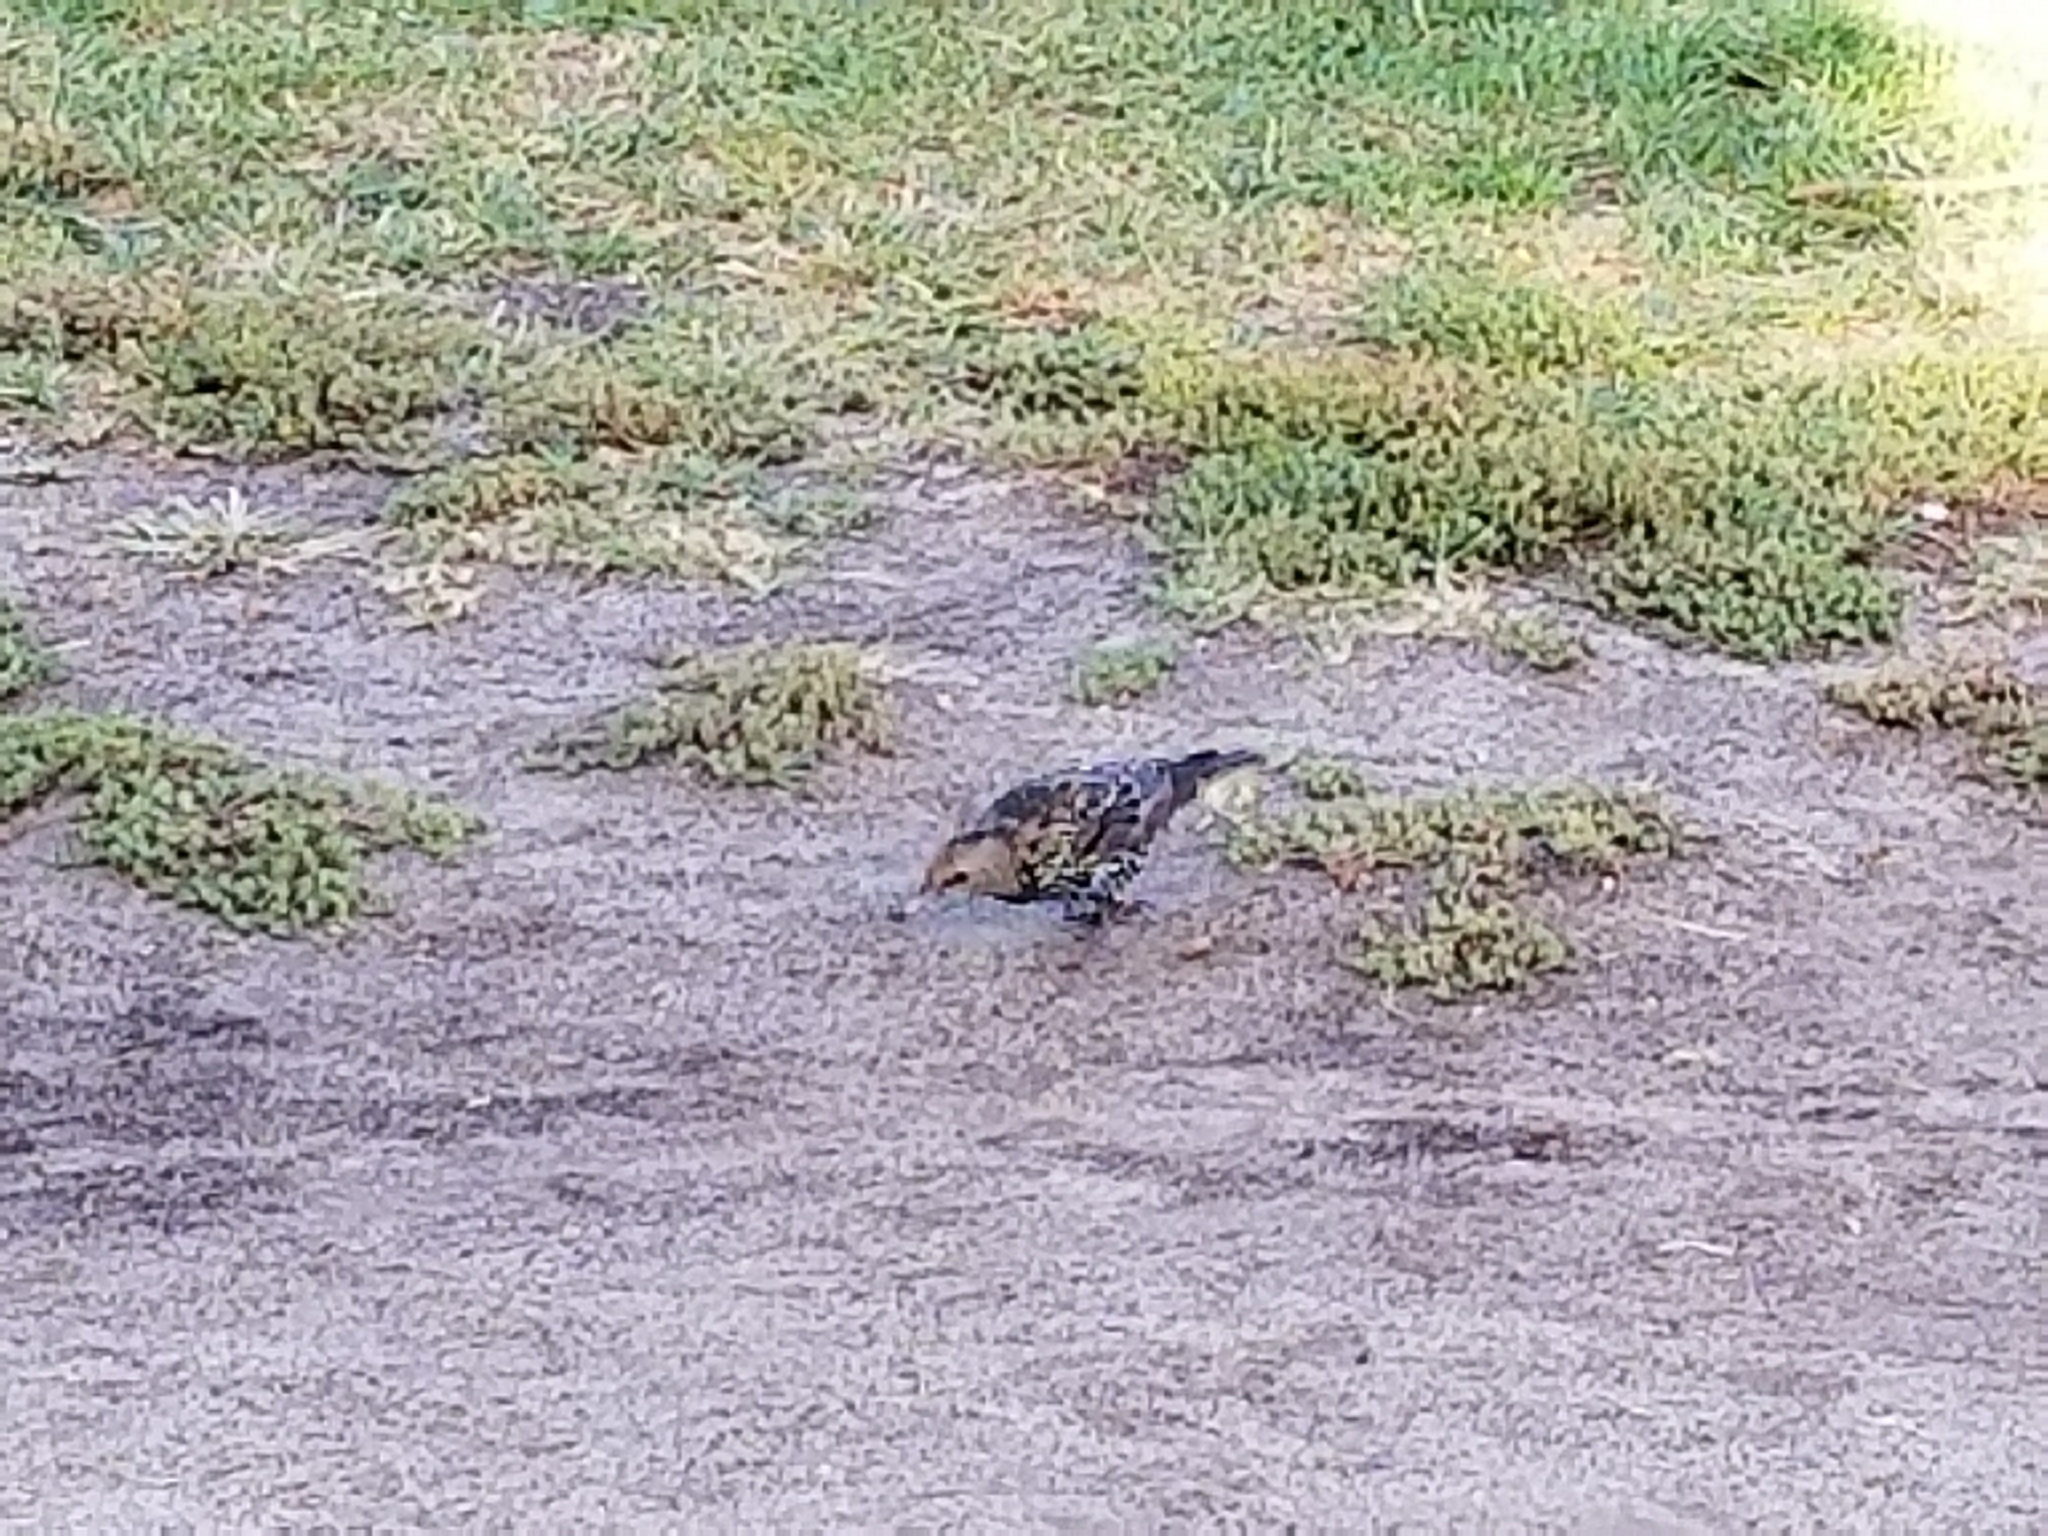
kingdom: Animalia
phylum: Chordata
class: Aves
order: Passeriformes
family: Sturnidae
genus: Sturnus
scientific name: Sturnus vulgaris
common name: Common starling
